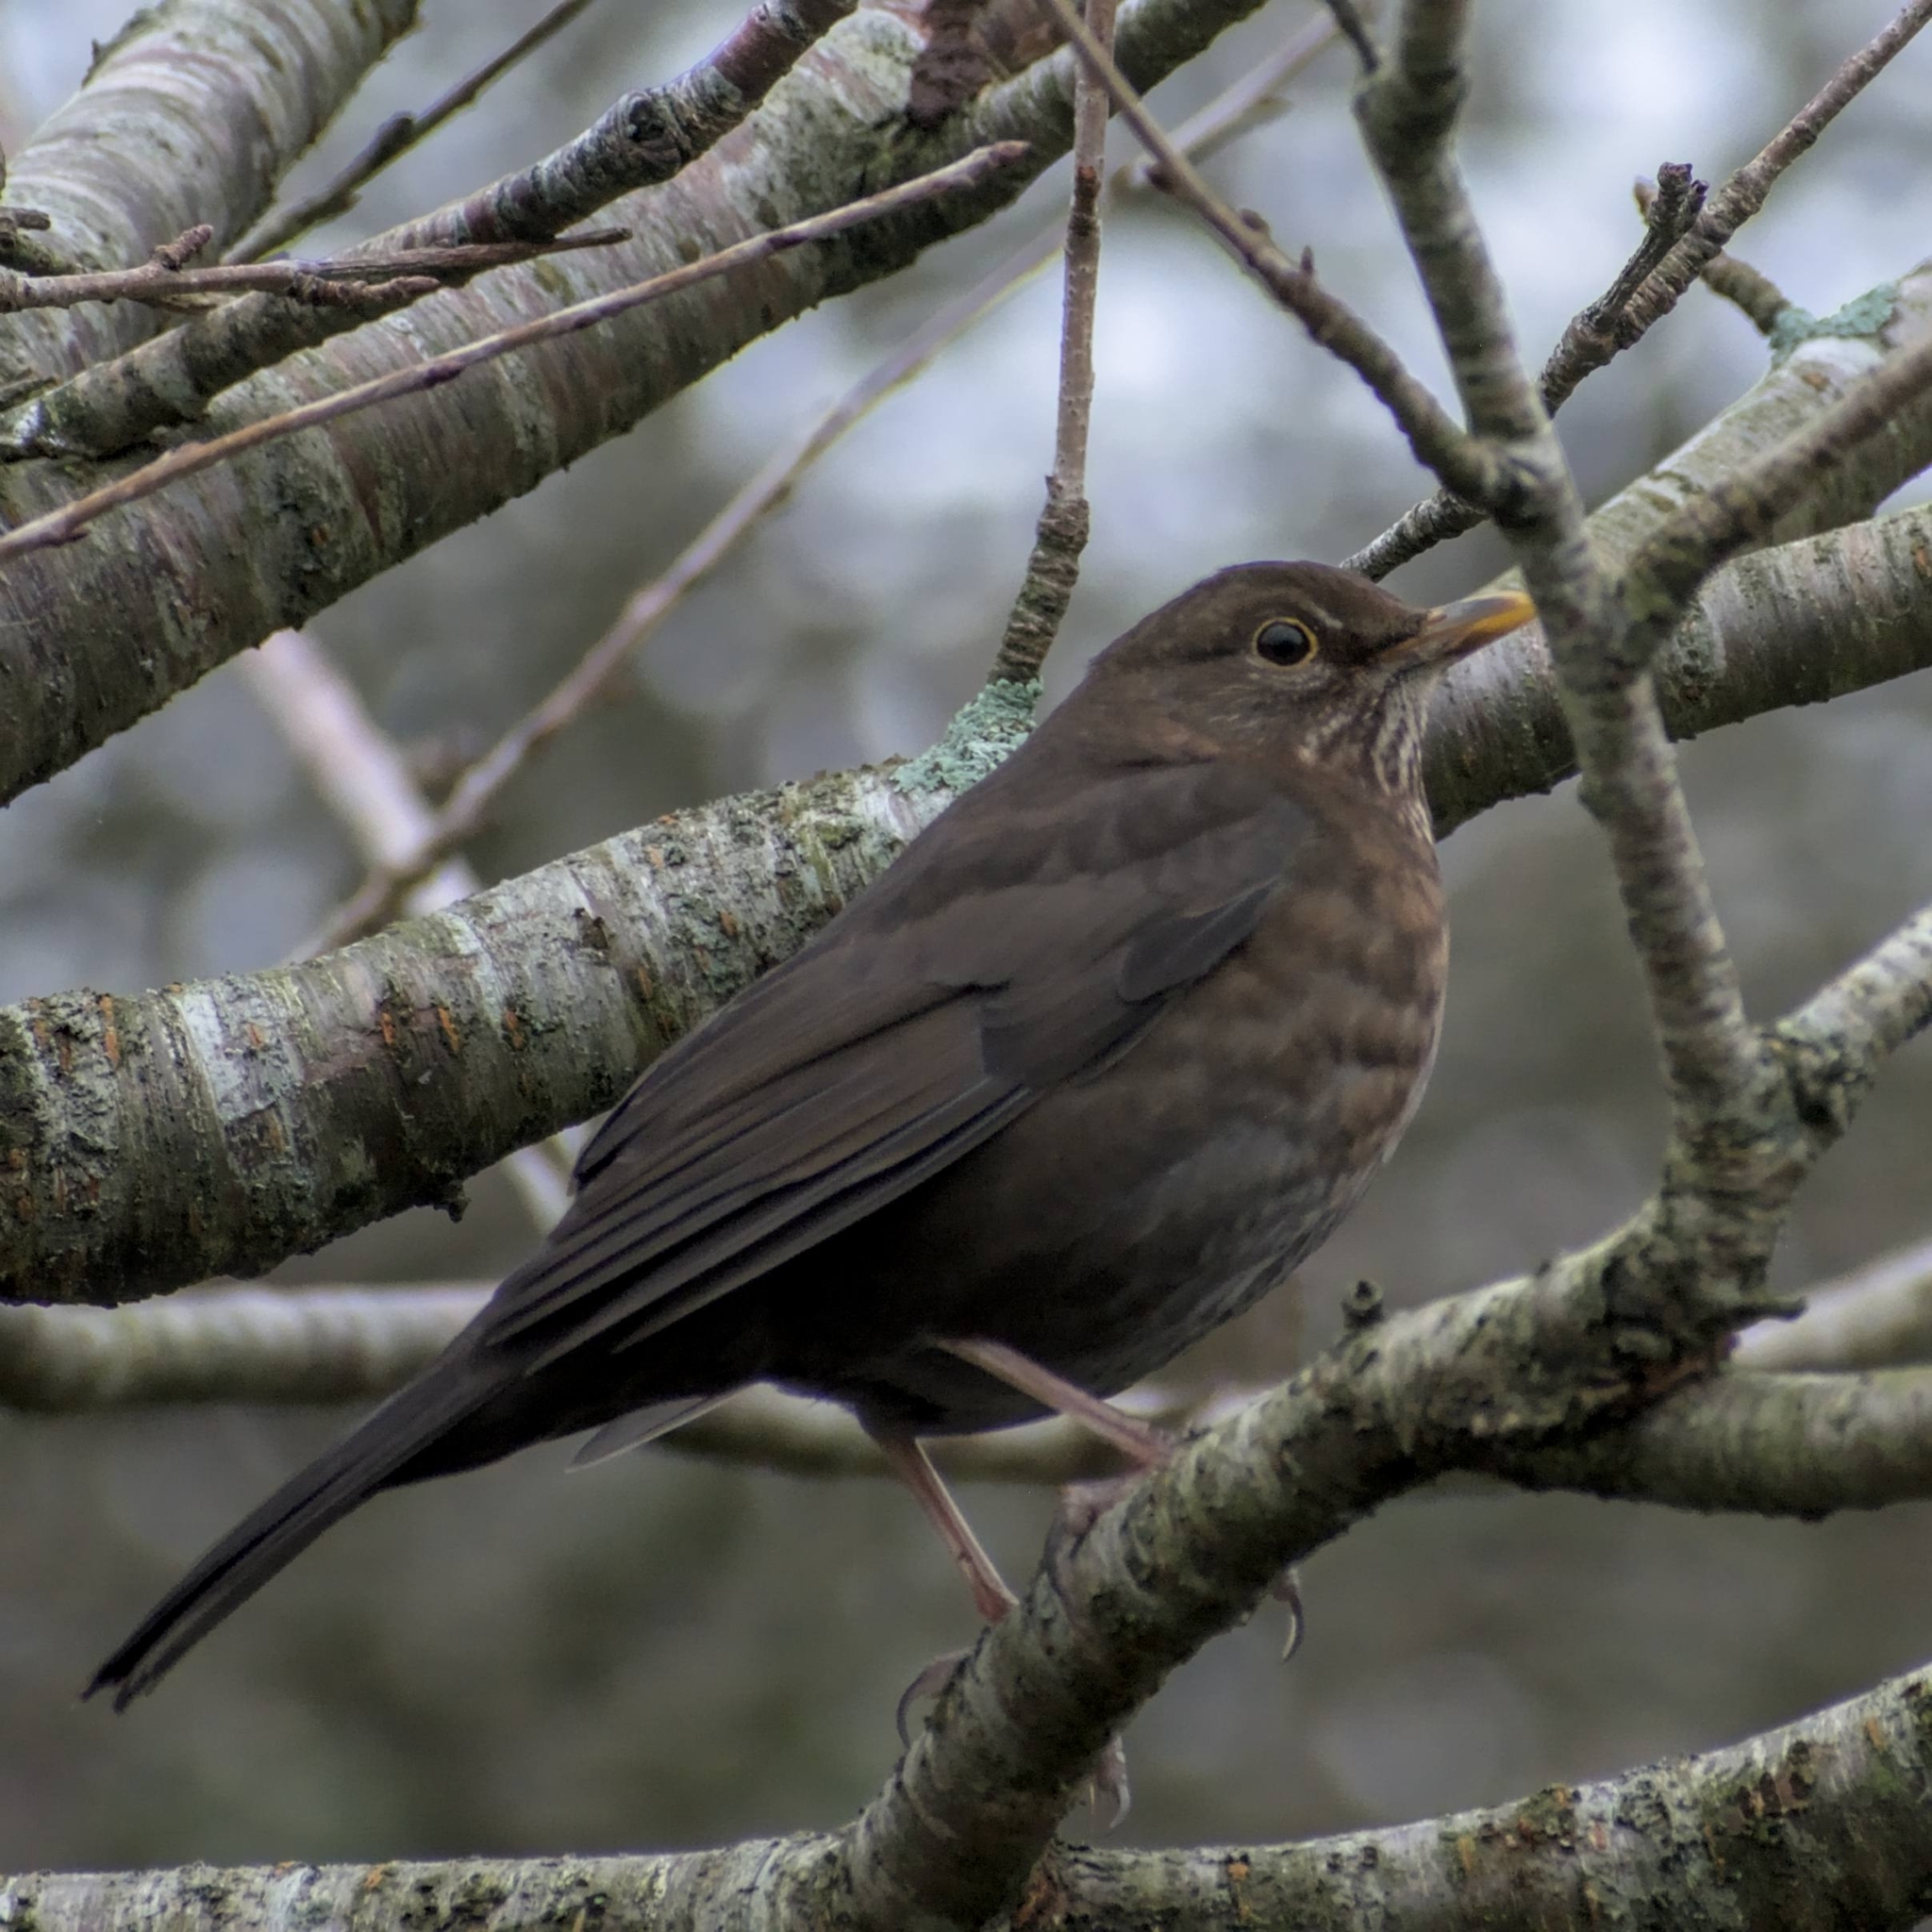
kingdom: Animalia
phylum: Chordata
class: Aves
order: Passeriformes
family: Turdidae
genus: Turdus
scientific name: Turdus merula
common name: Common blackbird
